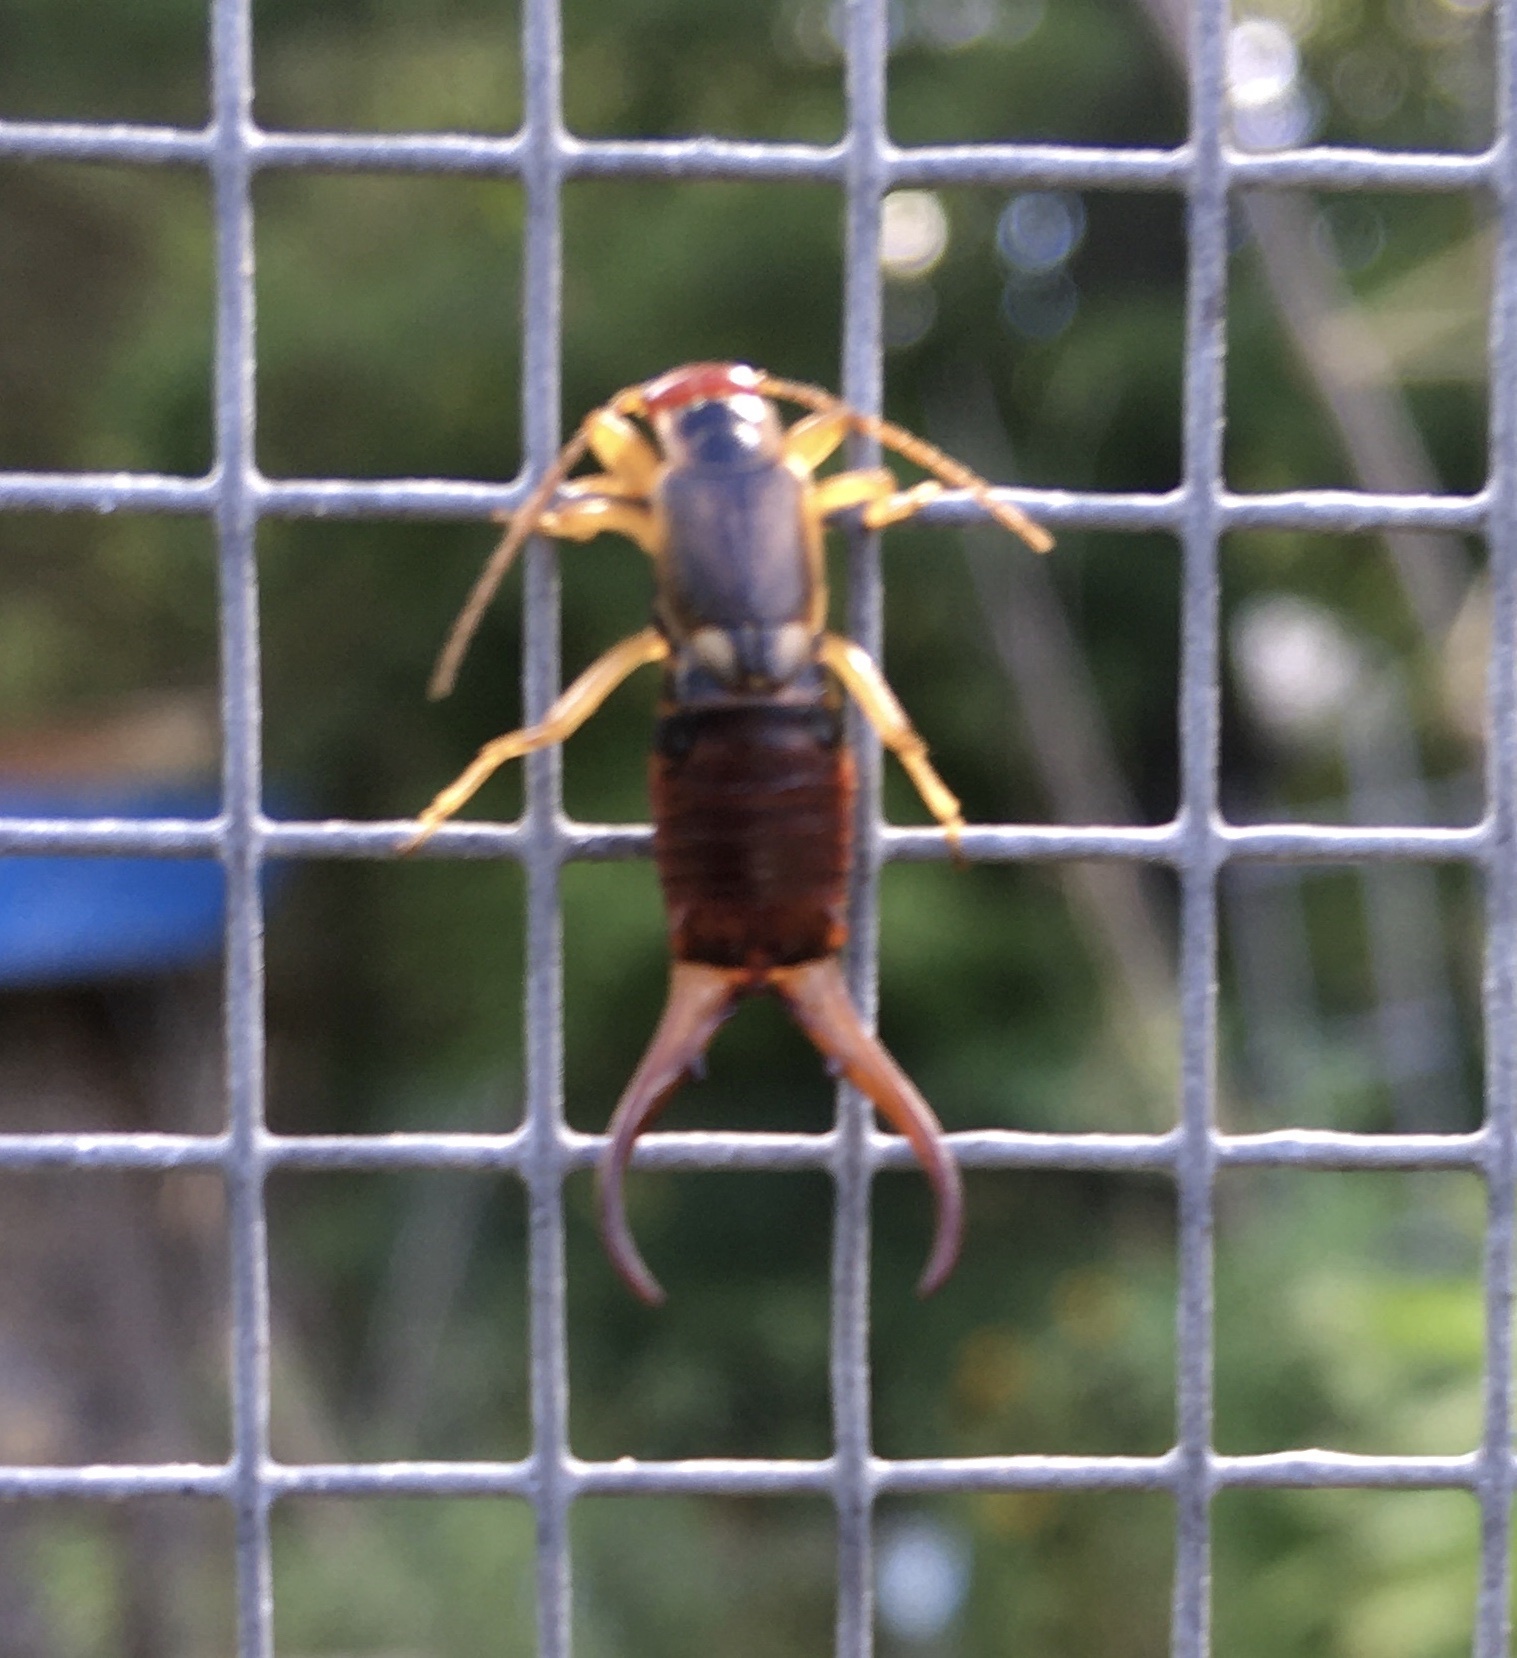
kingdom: Animalia
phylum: Arthropoda
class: Insecta
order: Dermaptera
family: Forficulidae
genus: Forficula
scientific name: Forficula
